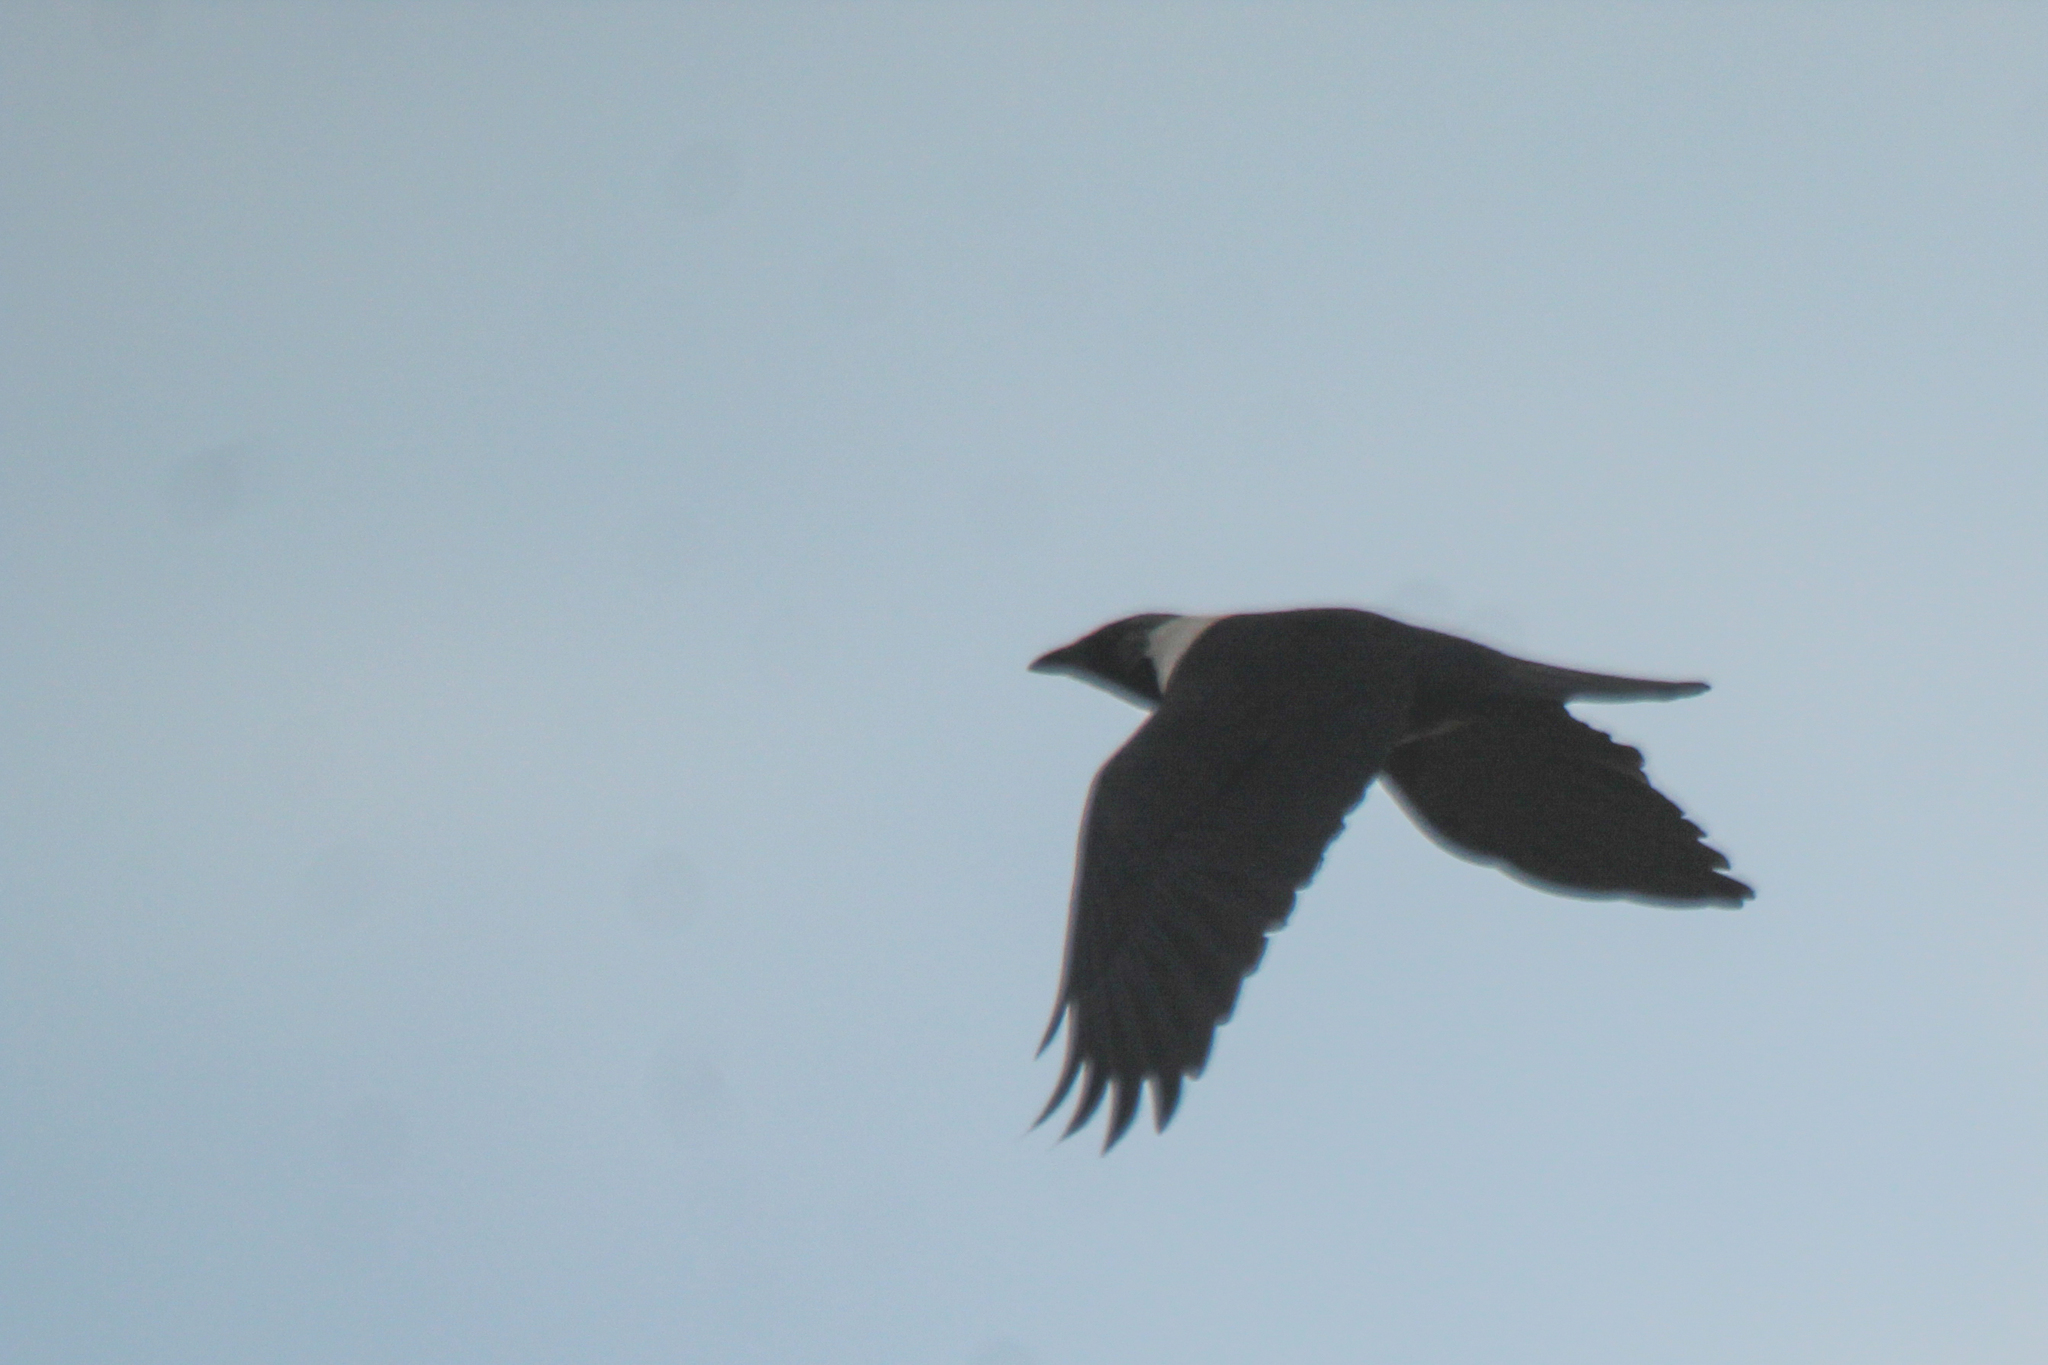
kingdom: Animalia
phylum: Chordata
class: Aves
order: Passeriformes
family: Corvidae
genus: Coloeus
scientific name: Coloeus dauuricus
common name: Daurian jackdaw
